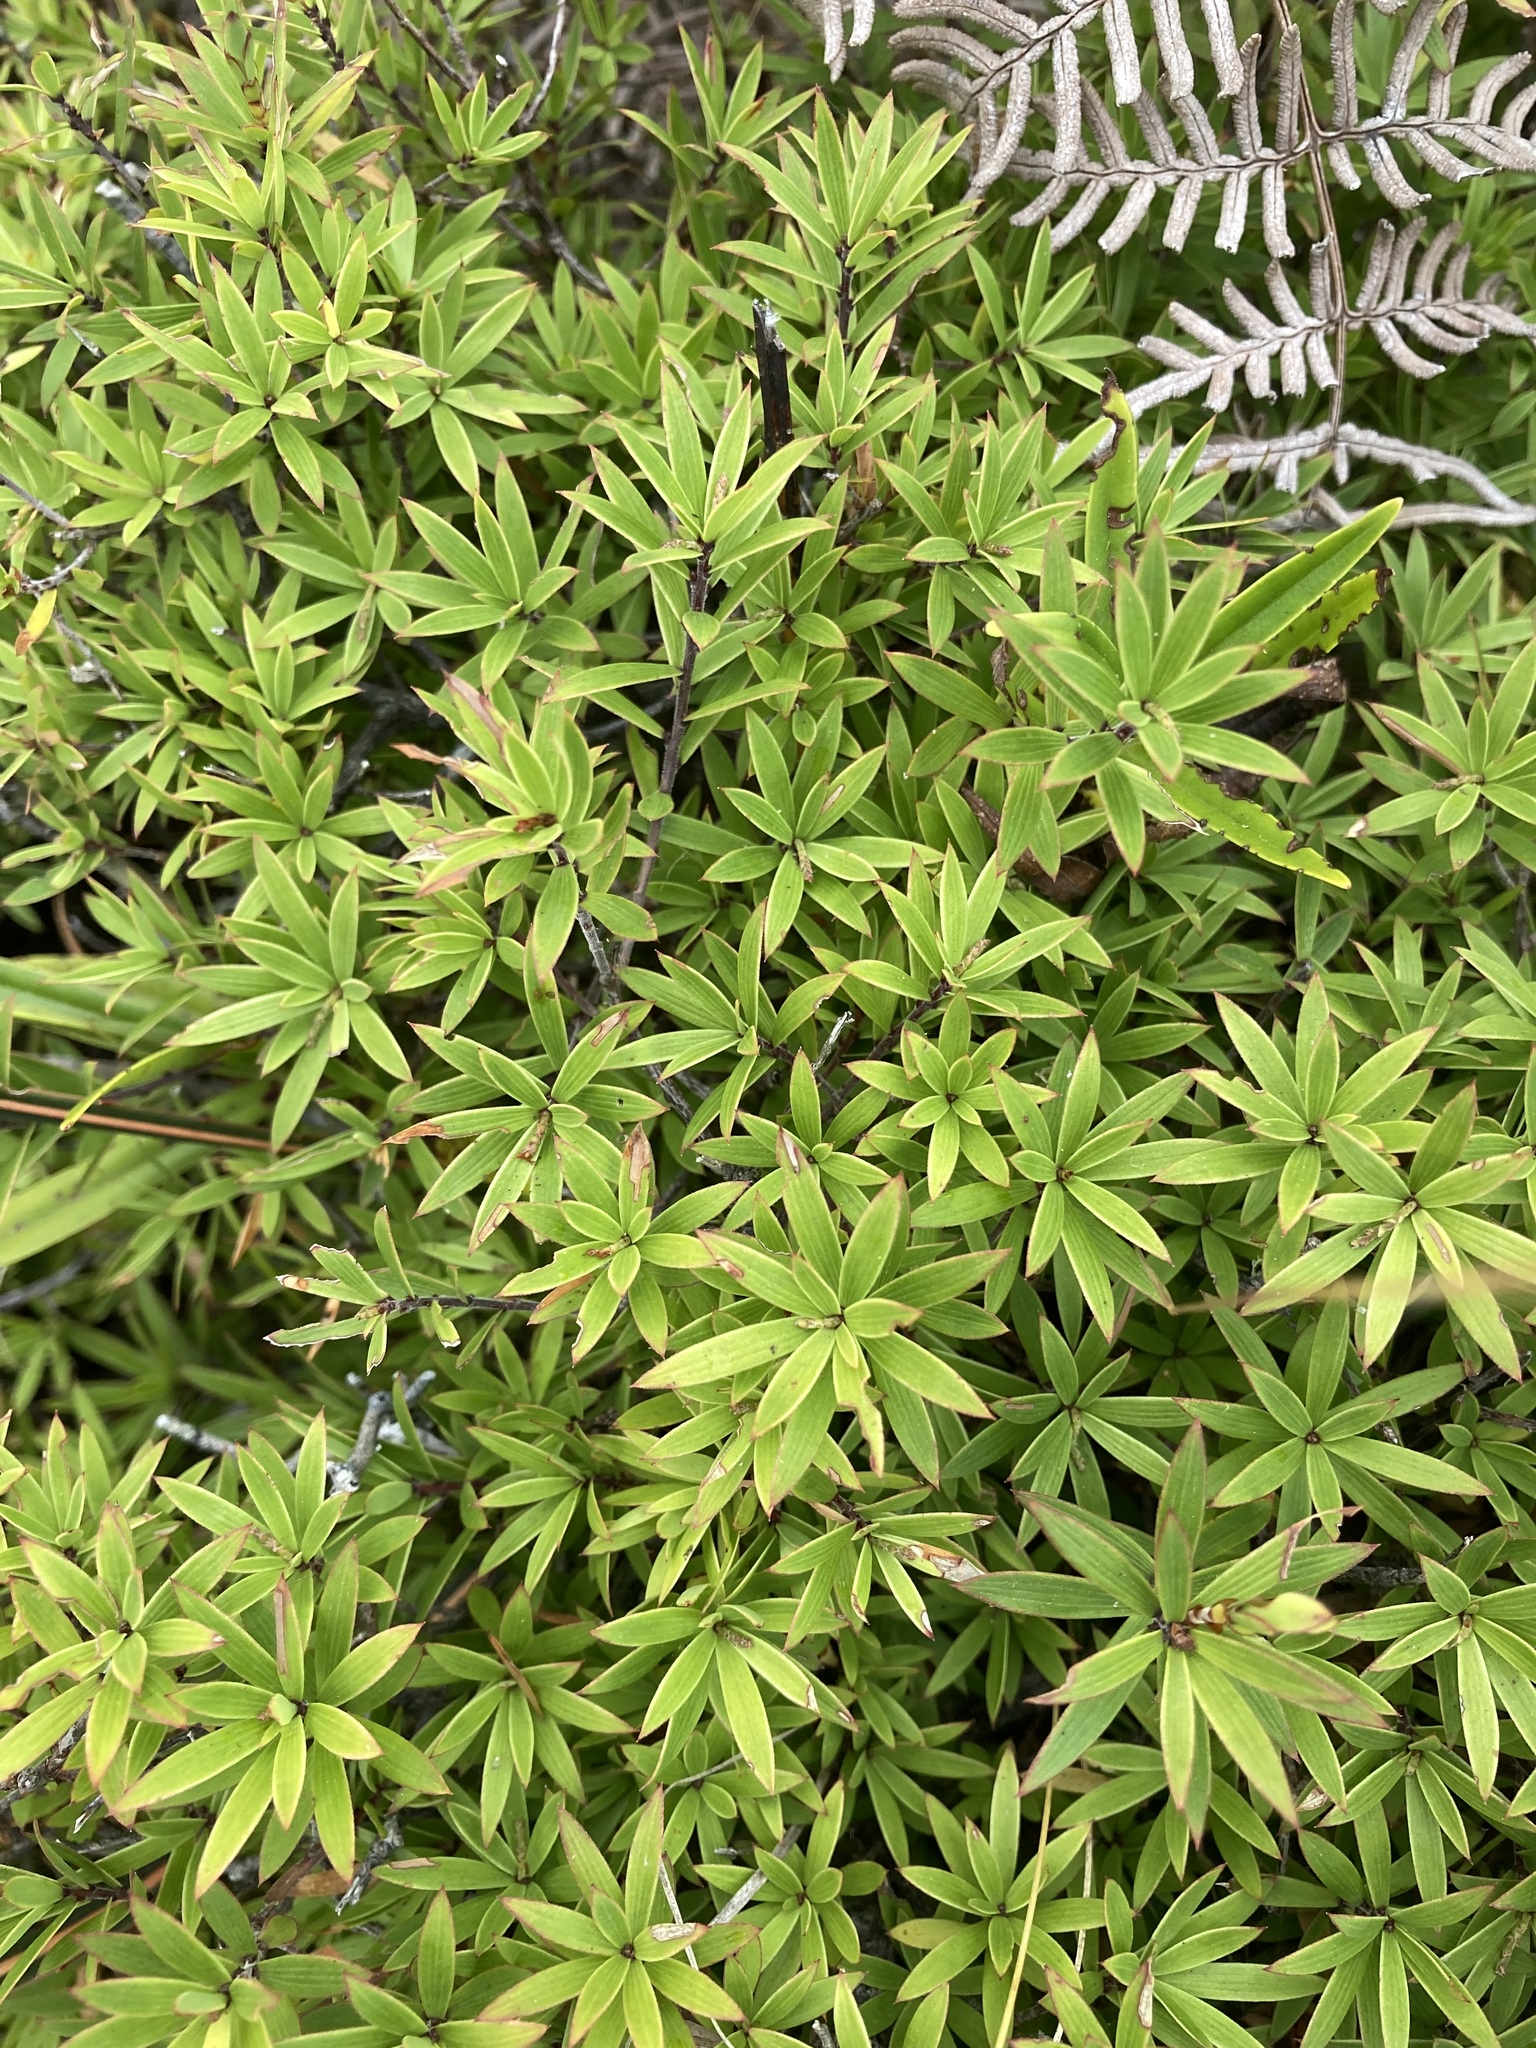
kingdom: Plantae
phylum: Tracheophyta
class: Magnoliopsida
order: Ericales
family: Ericaceae
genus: Leucopogon
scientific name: Leucopogon fasciculatus
